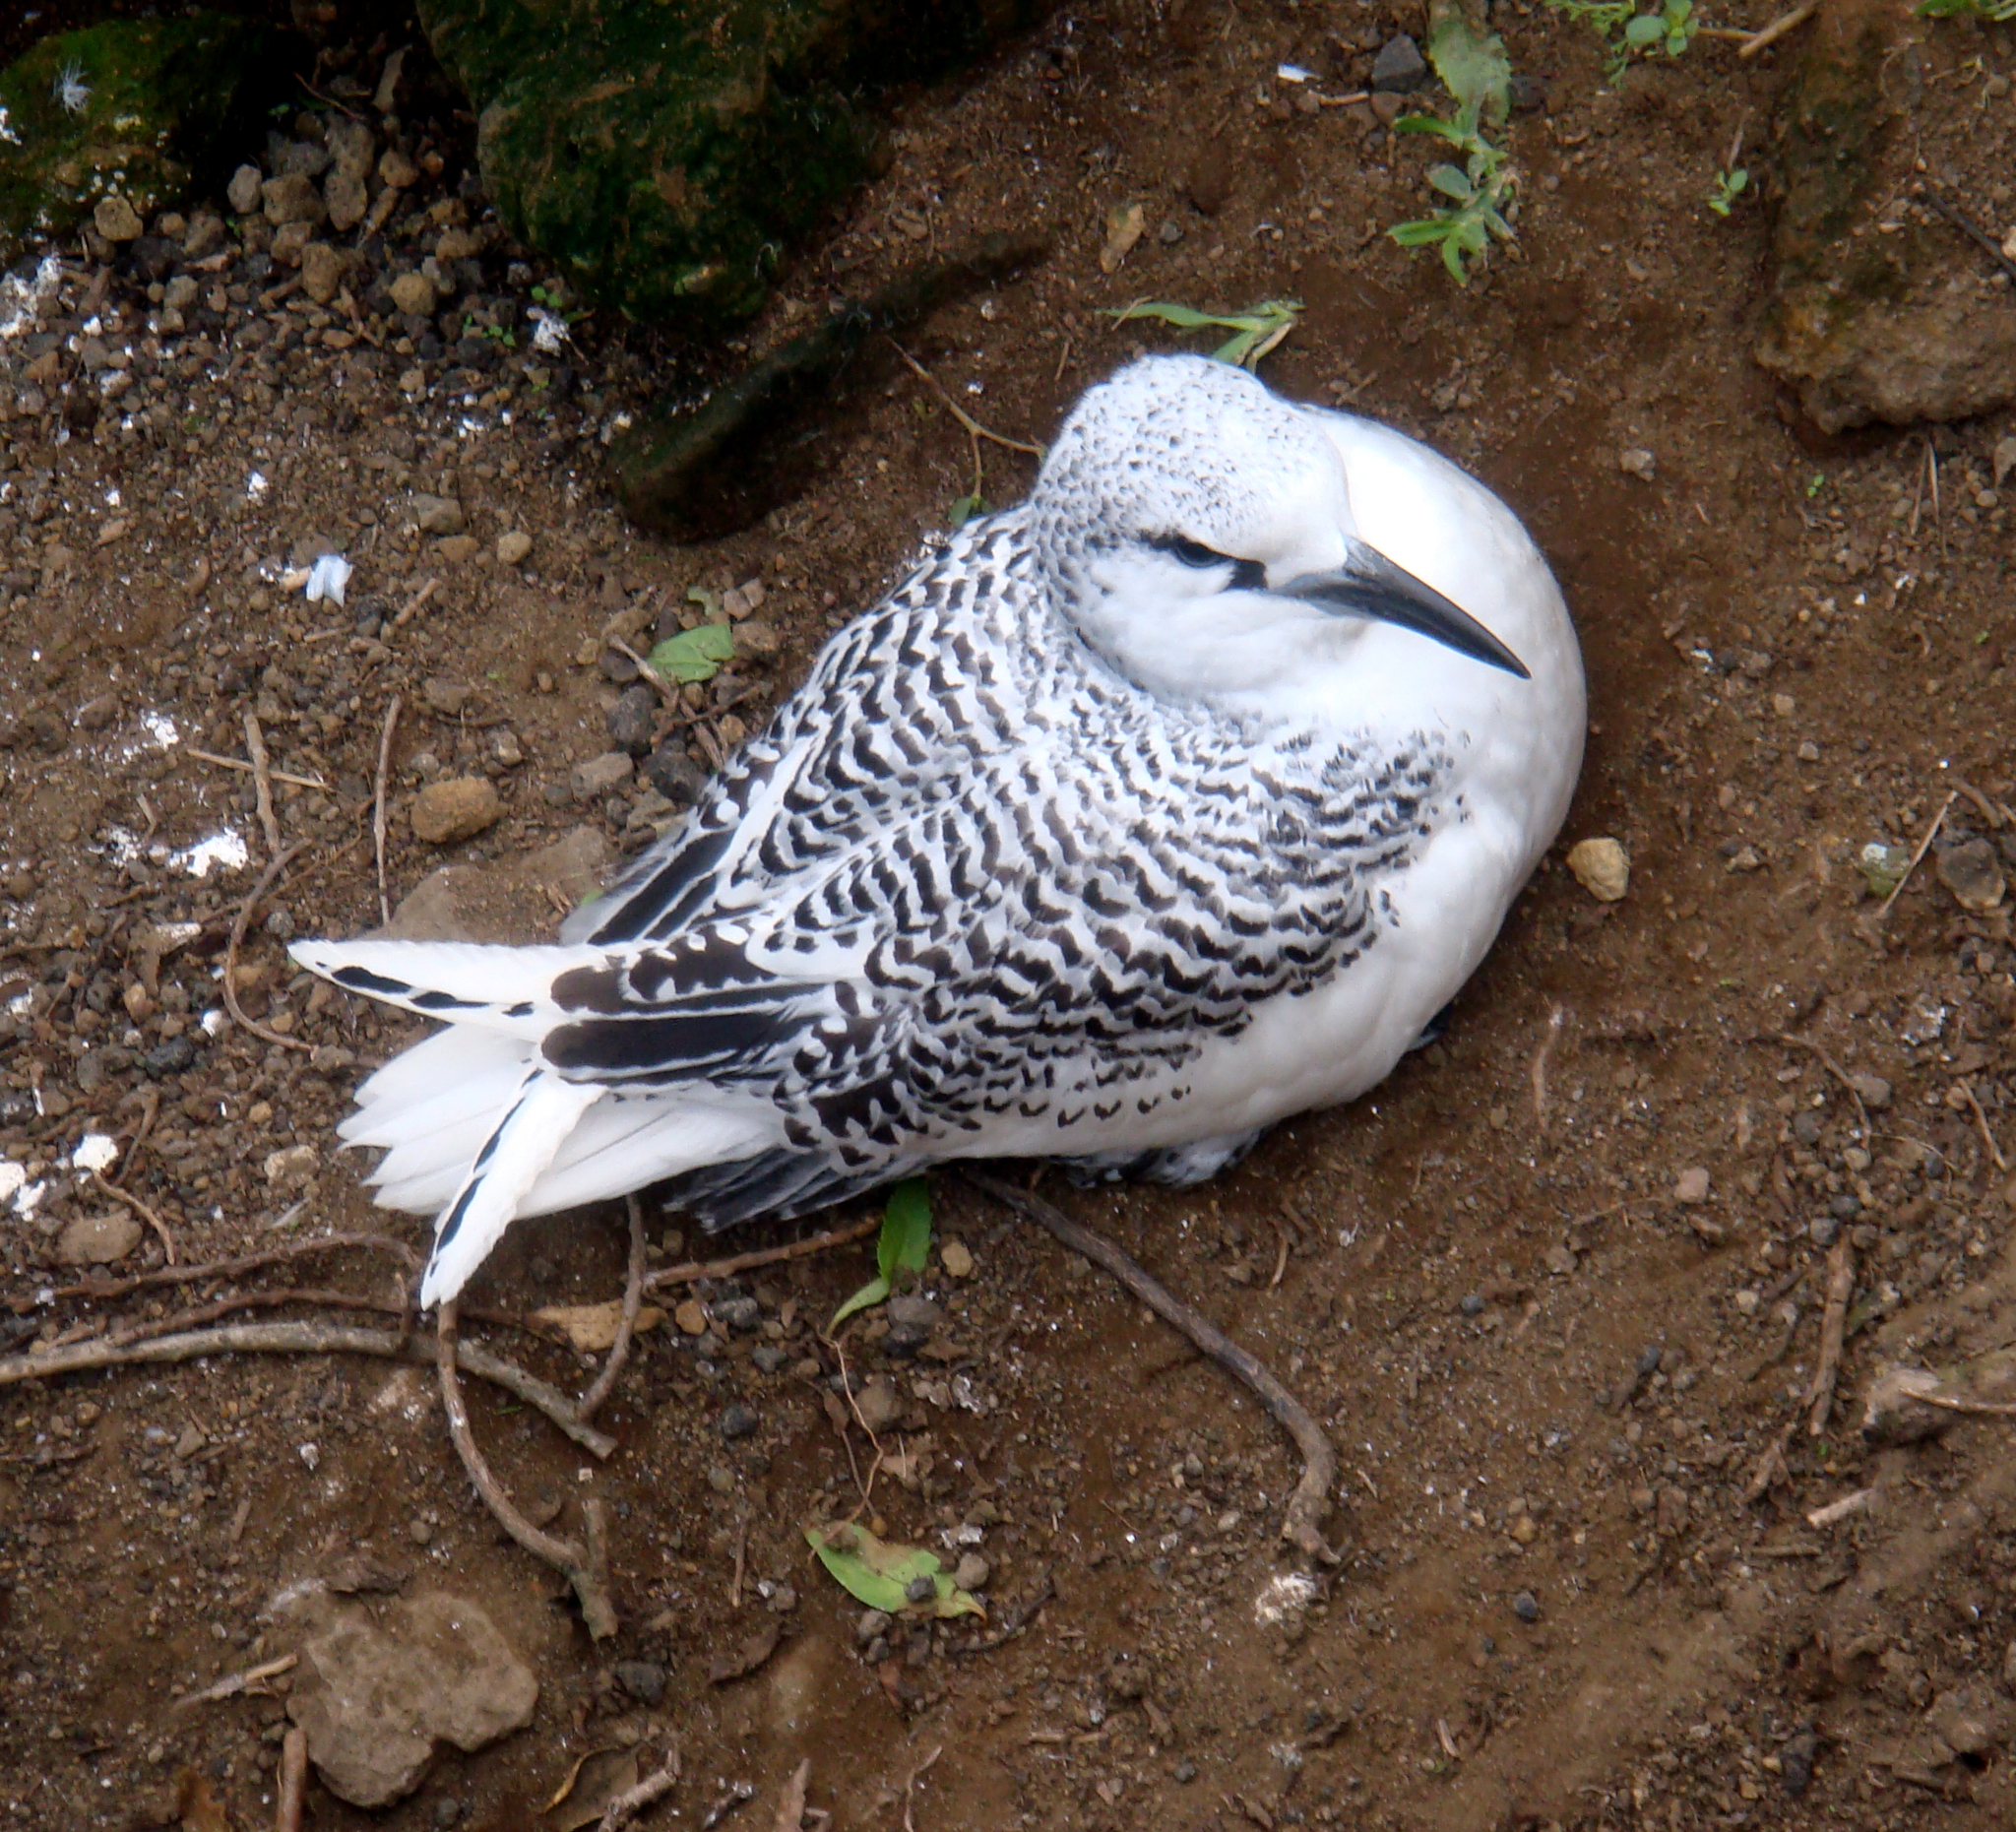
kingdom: Animalia
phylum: Chordata
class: Aves
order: Phaethontiformes
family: Phaethontidae
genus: Phaethon
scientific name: Phaethon rubricauda
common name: Red-tailed tropicbird
